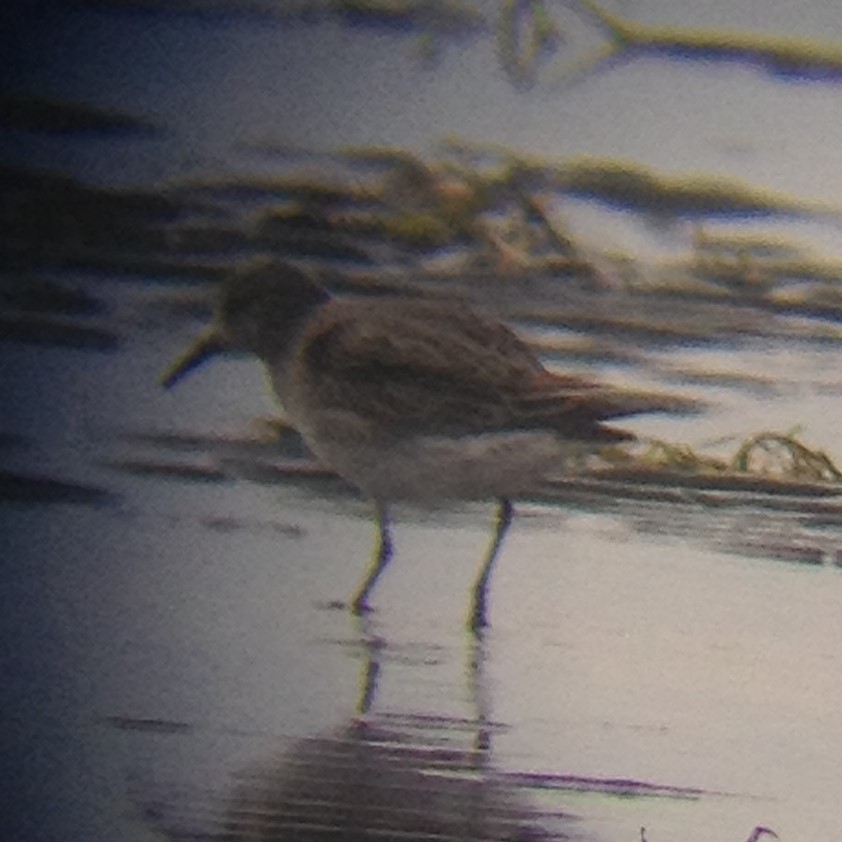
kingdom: Animalia
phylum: Chordata
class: Aves
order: Charadriiformes
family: Scolopacidae
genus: Calidris
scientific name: Calidris fuscicollis
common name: White-rumped sandpiper
